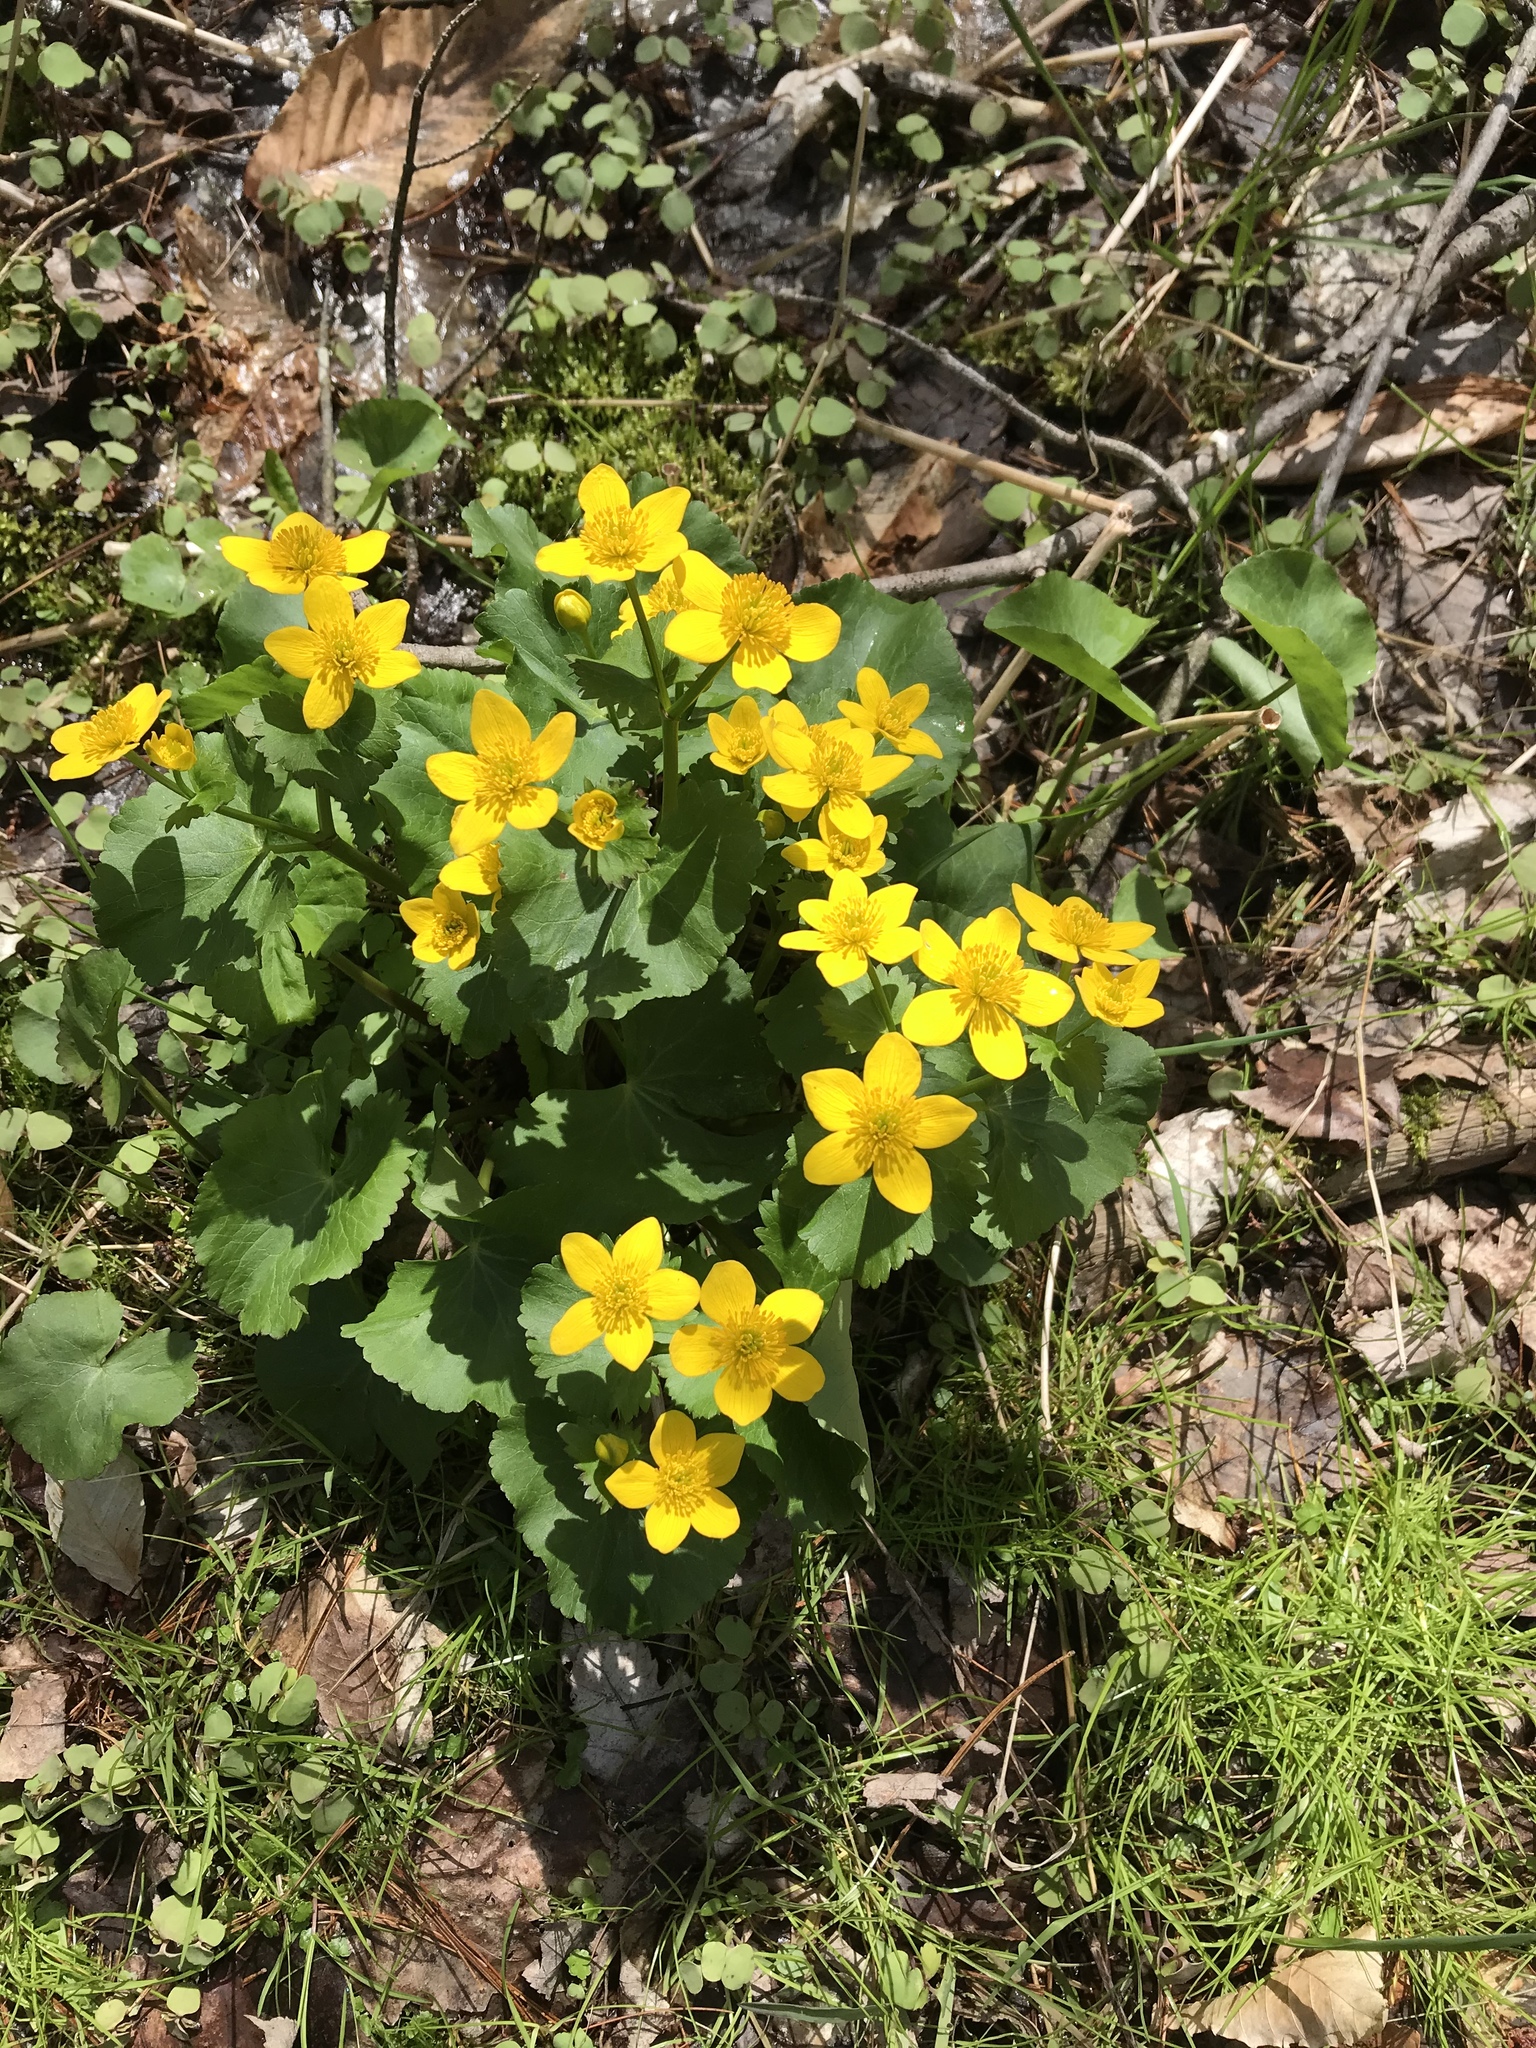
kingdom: Plantae
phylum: Tracheophyta
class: Magnoliopsida
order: Ranunculales
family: Ranunculaceae
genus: Caltha
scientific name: Caltha palustris
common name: Marsh marigold
